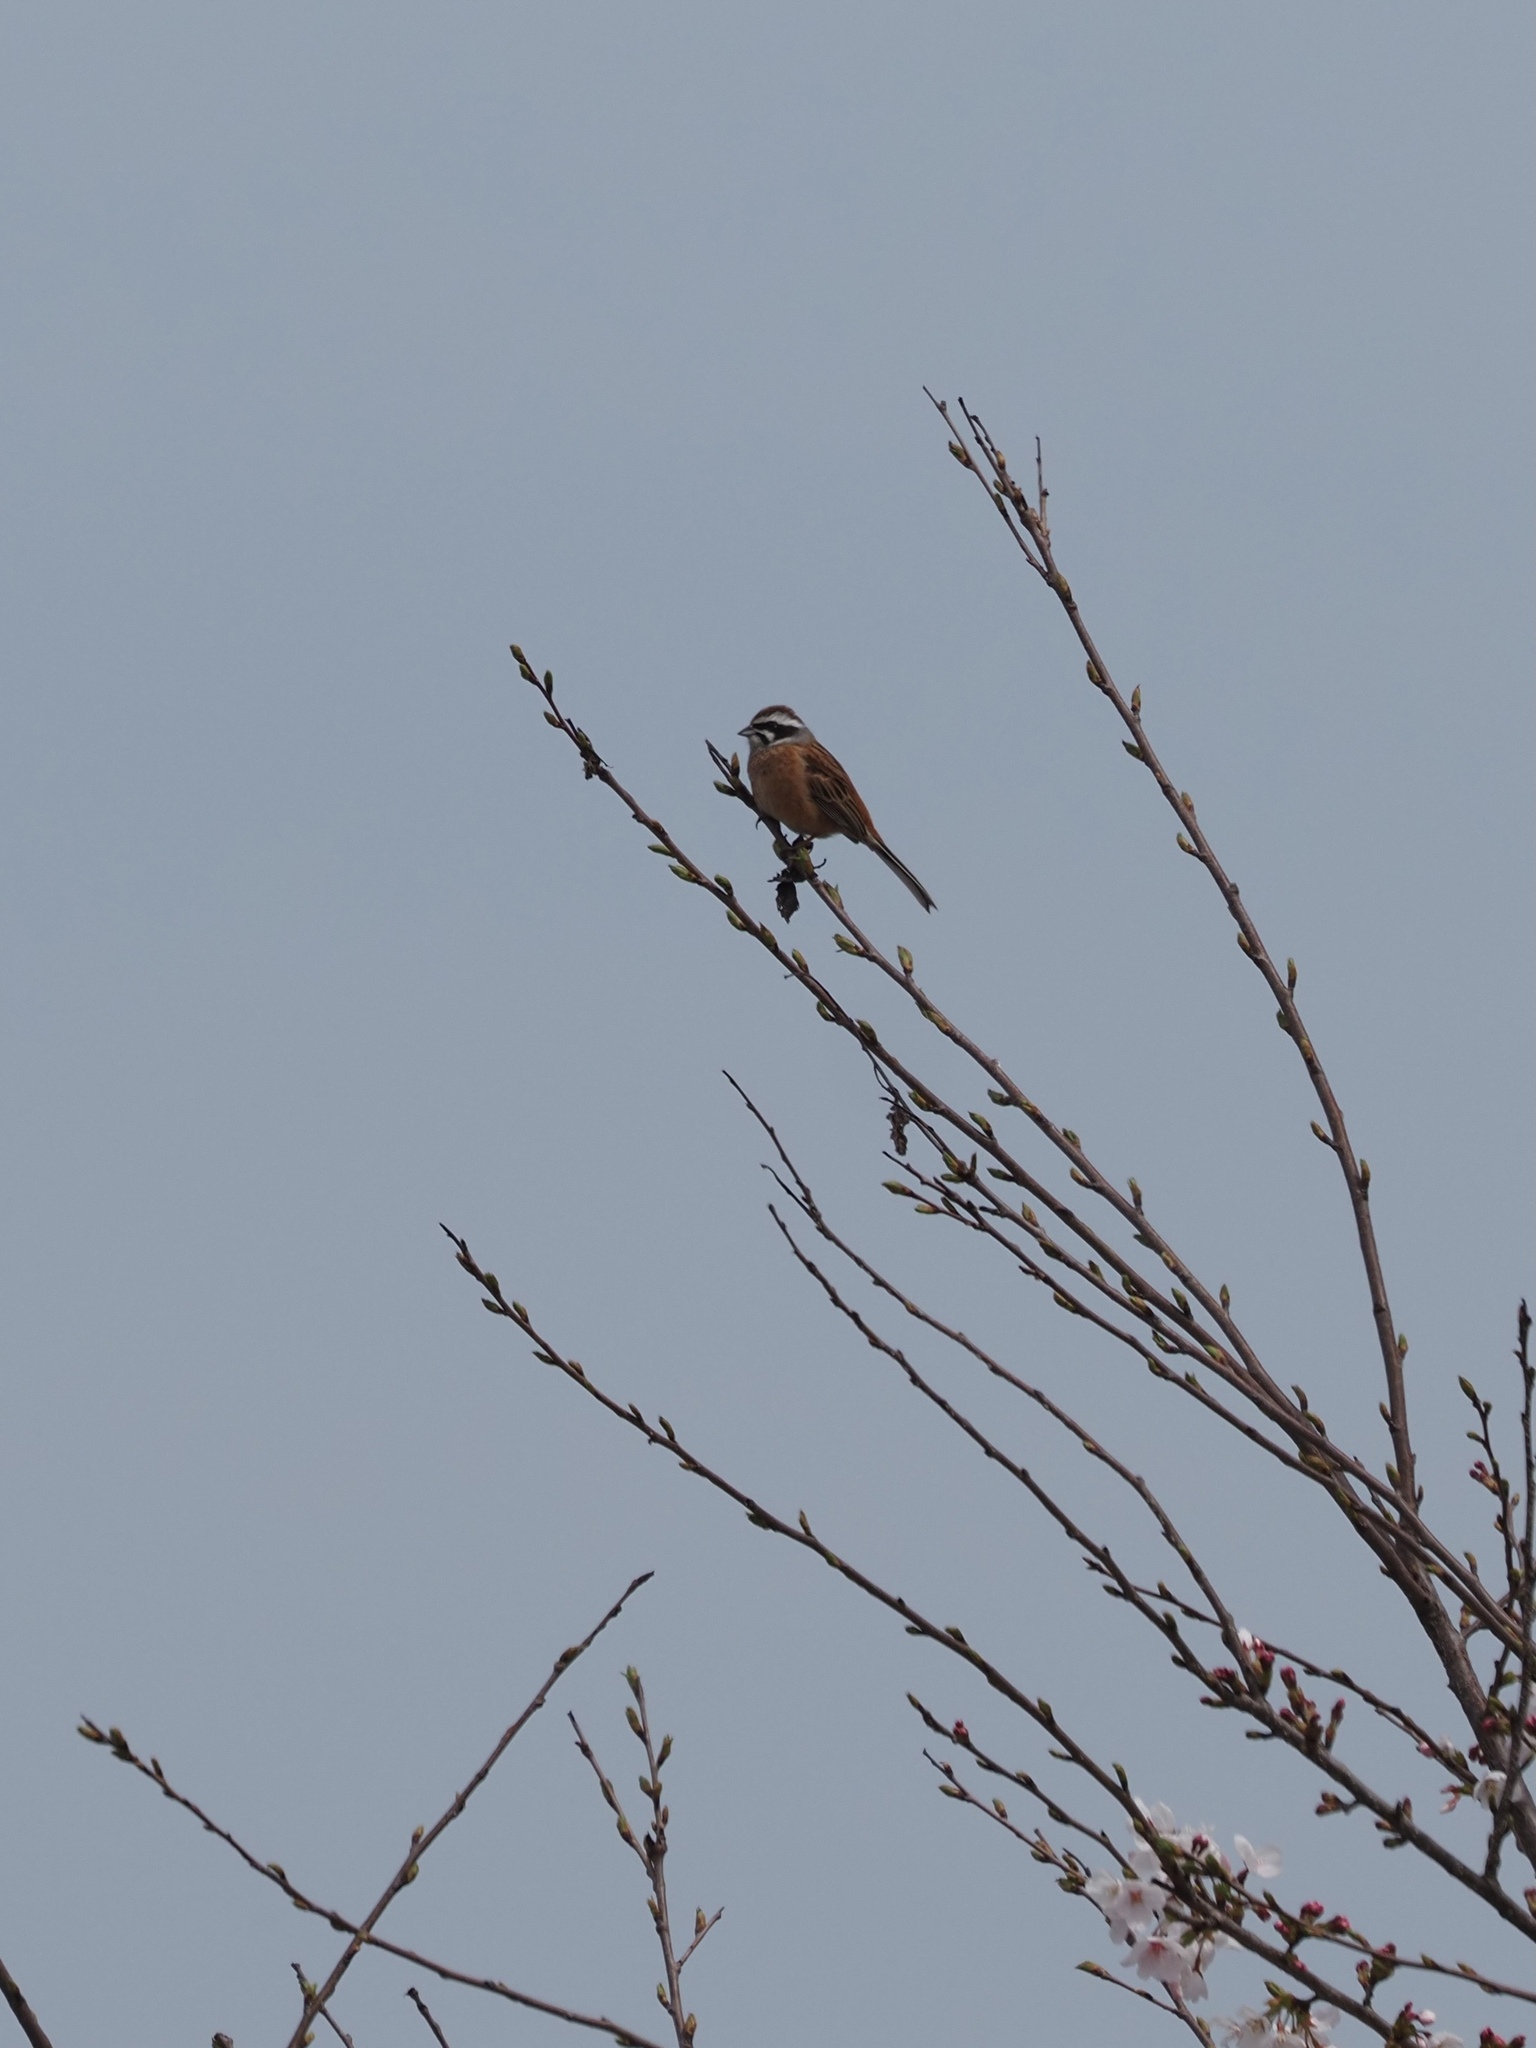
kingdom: Animalia
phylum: Chordata
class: Aves
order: Passeriformes
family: Emberizidae
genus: Emberiza
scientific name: Emberiza cioides
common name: Meadow bunting
